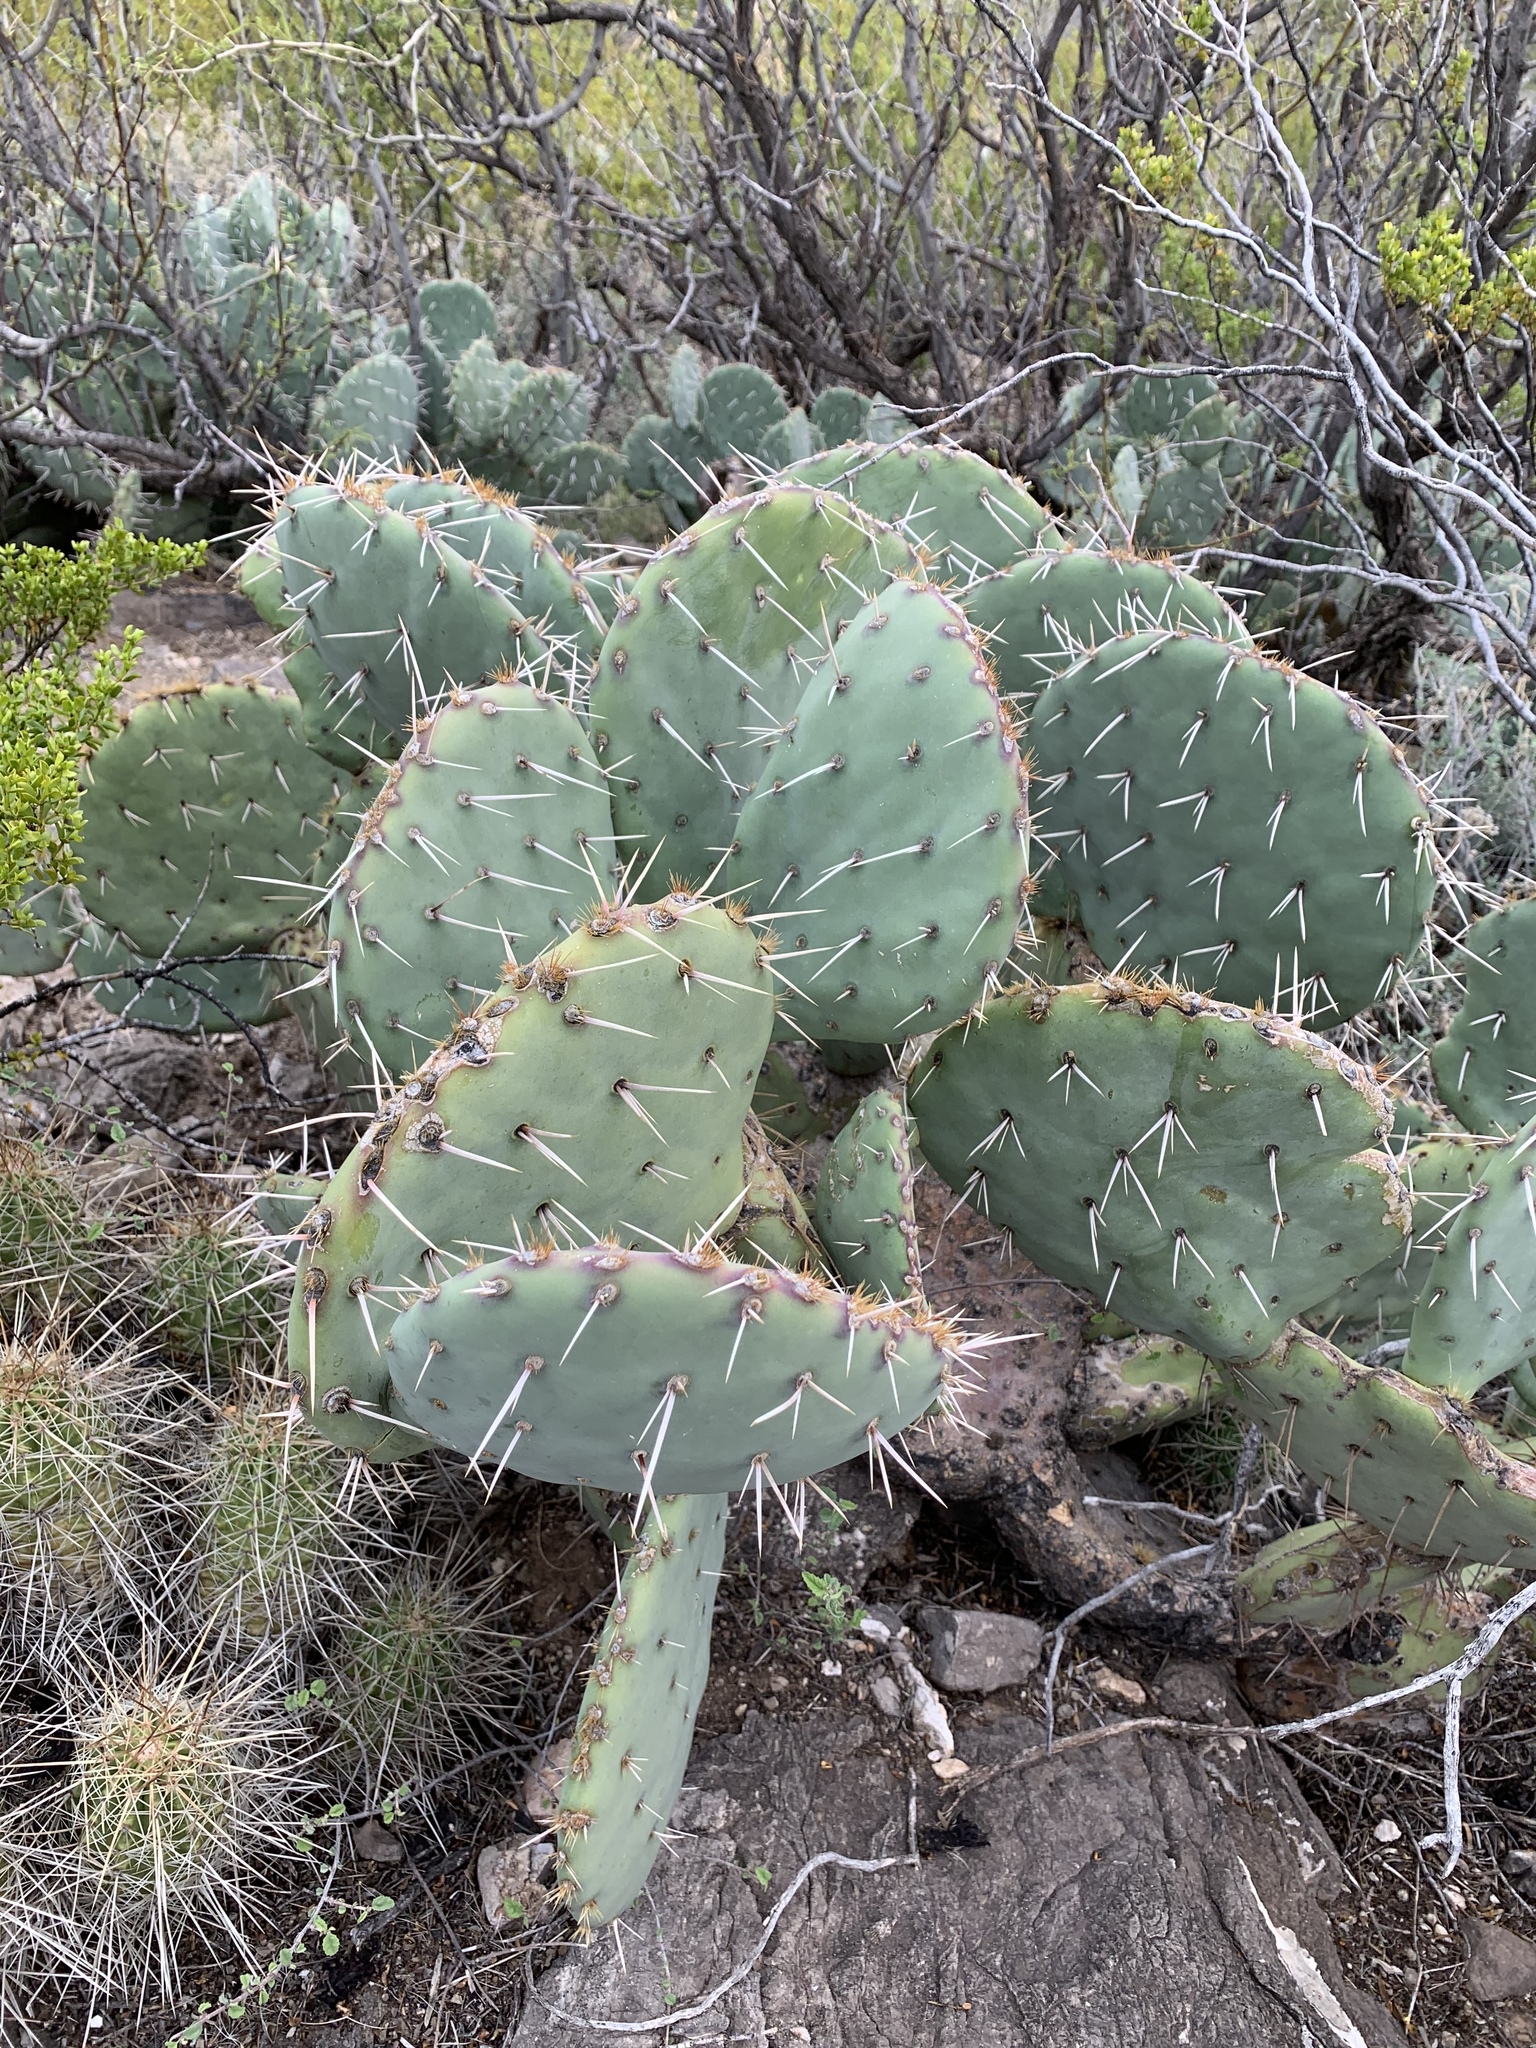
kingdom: Plantae
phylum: Tracheophyta
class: Magnoliopsida
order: Caryophyllales
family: Cactaceae
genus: Opuntia
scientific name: Opuntia engelmannii
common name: Cactus-apple
